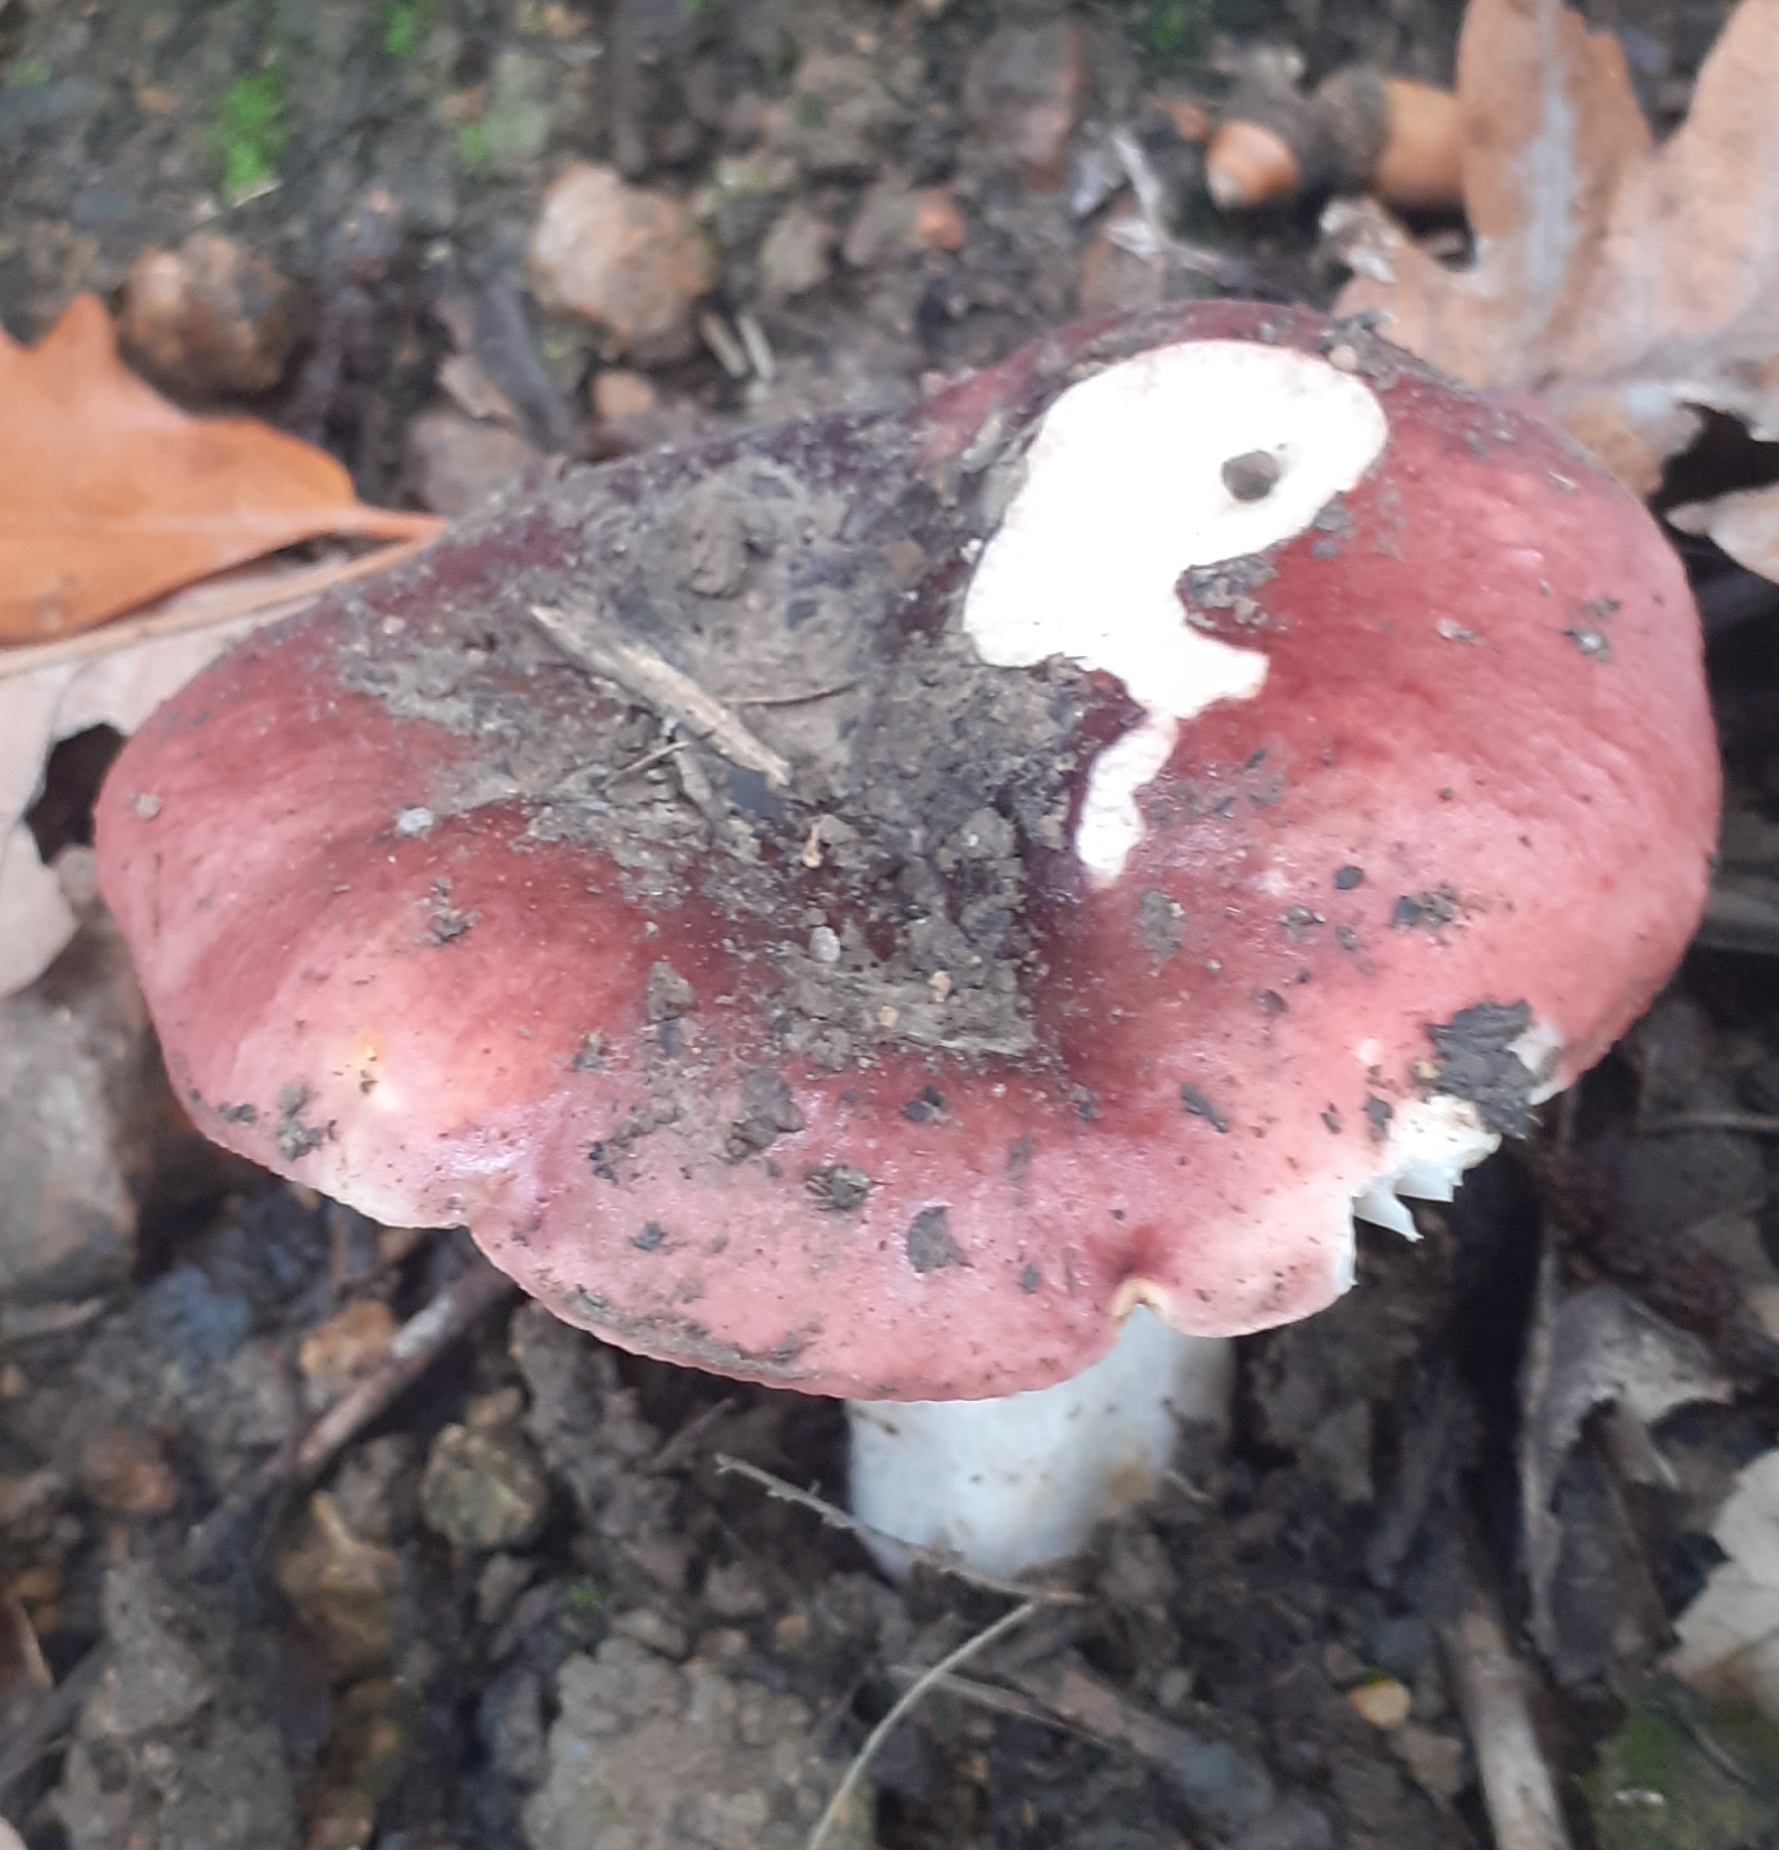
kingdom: Fungi
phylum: Basidiomycota
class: Agaricomycetes
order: Russulales
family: Russulaceae
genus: Russula
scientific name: Russula atropurpurea
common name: Blackish-purple russula
